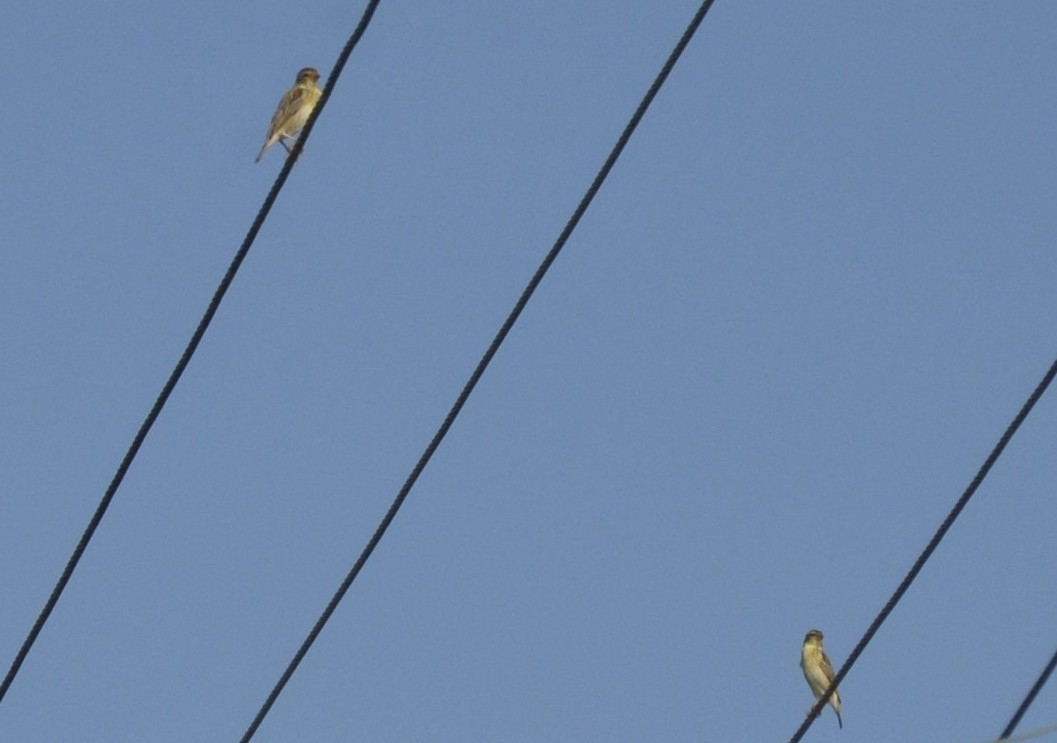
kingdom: Animalia
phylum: Chordata
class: Aves
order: Passeriformes
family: Ploceidae
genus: Ploceus
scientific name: Ploceus philippinus
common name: Baya weaver
